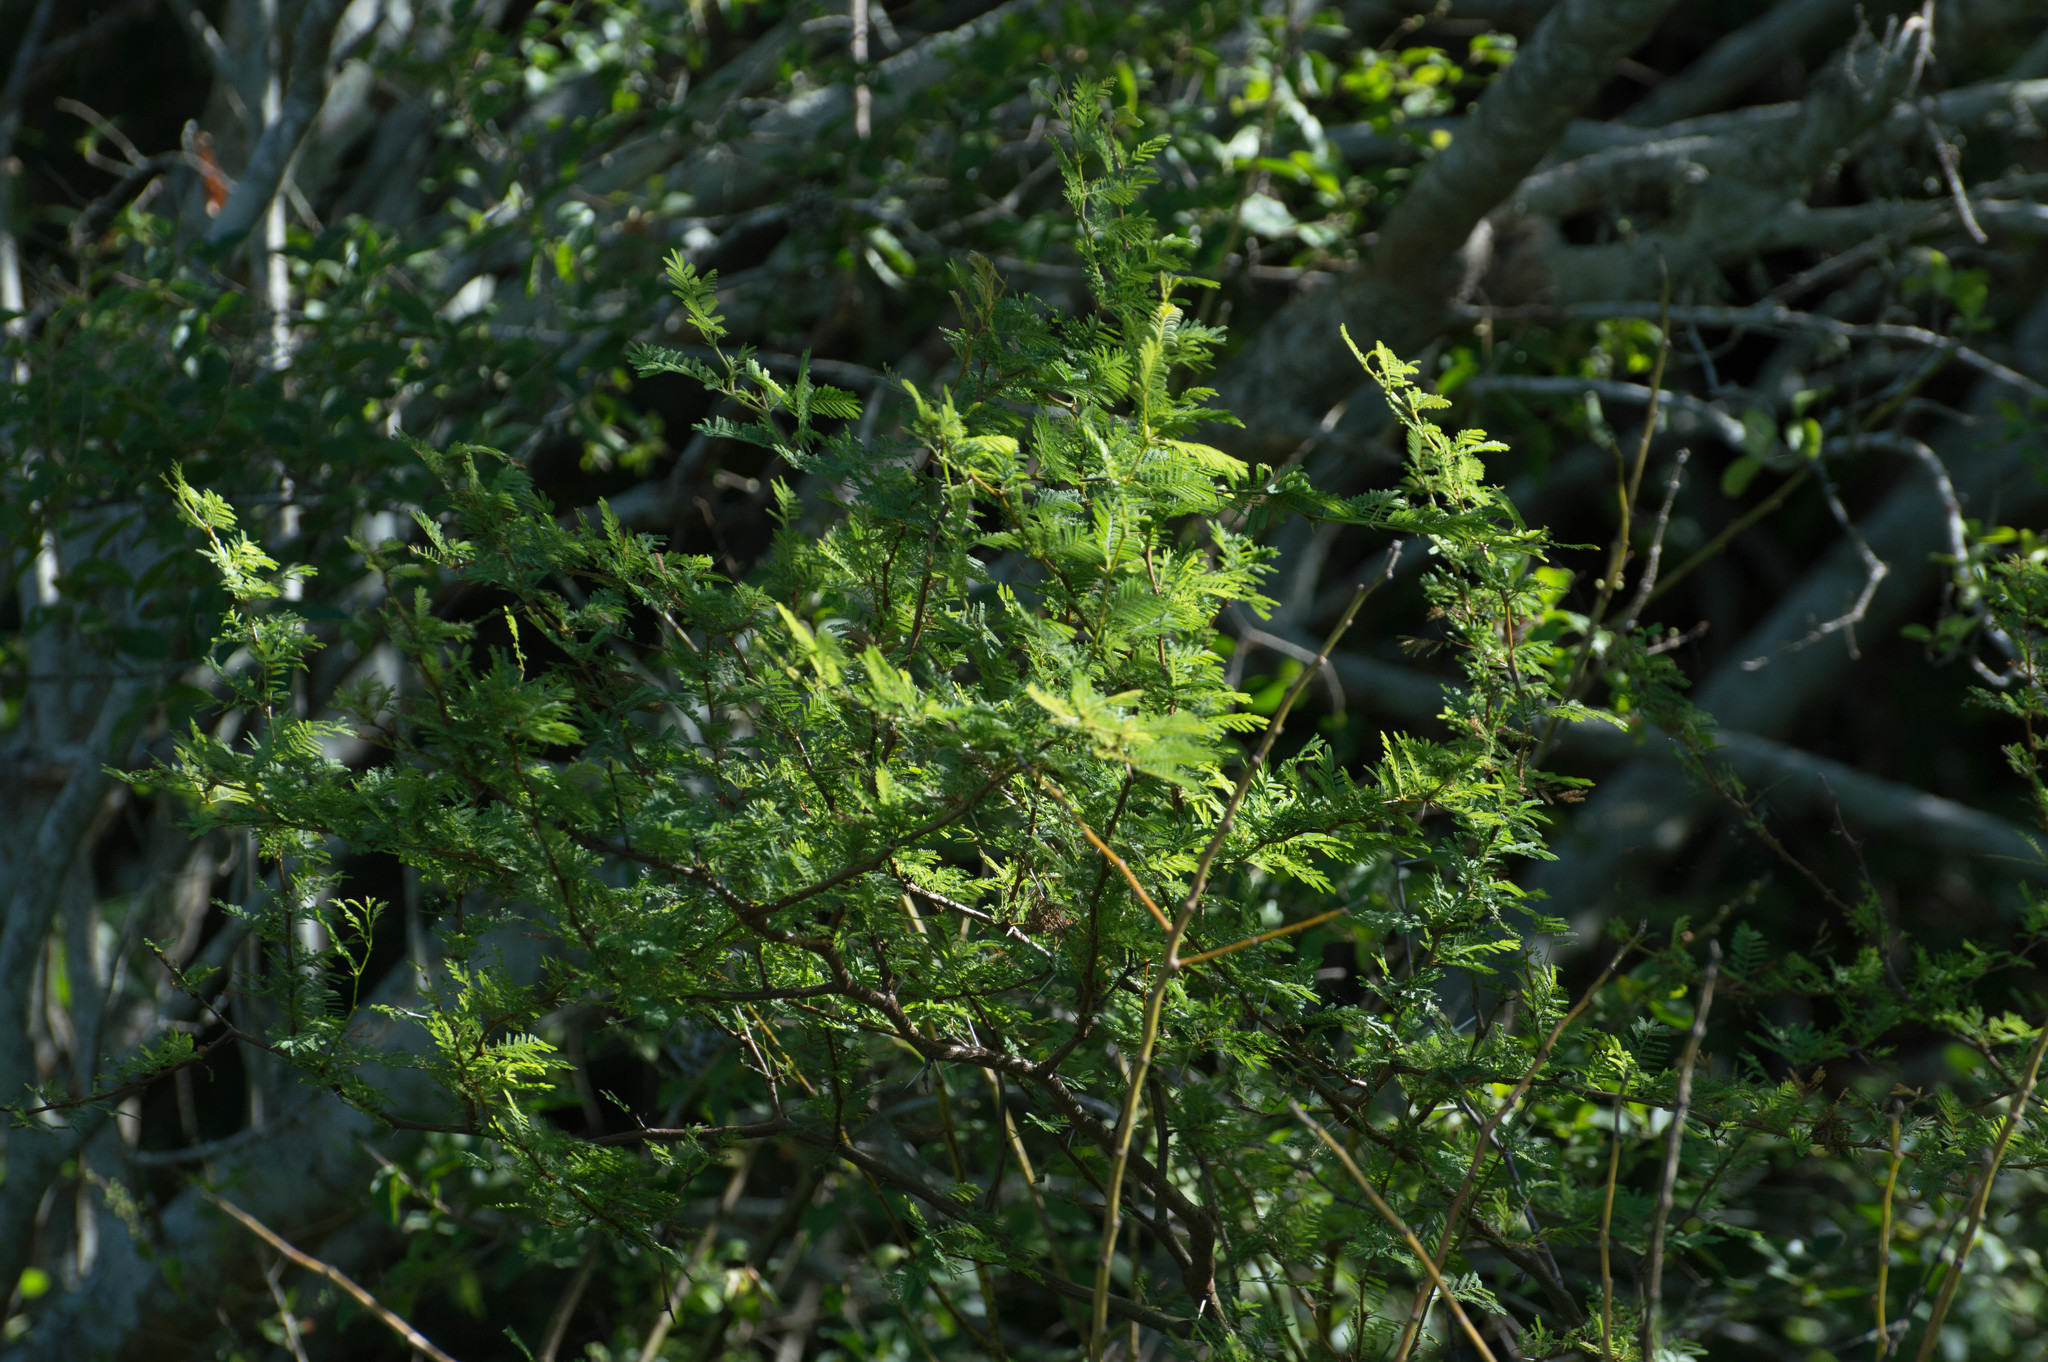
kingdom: Plantae
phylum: Tracheophyta
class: Magnoliopsida
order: Fabales
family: Fabaceae
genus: Vachellia
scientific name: Vachellia caven
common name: Roman cassie
